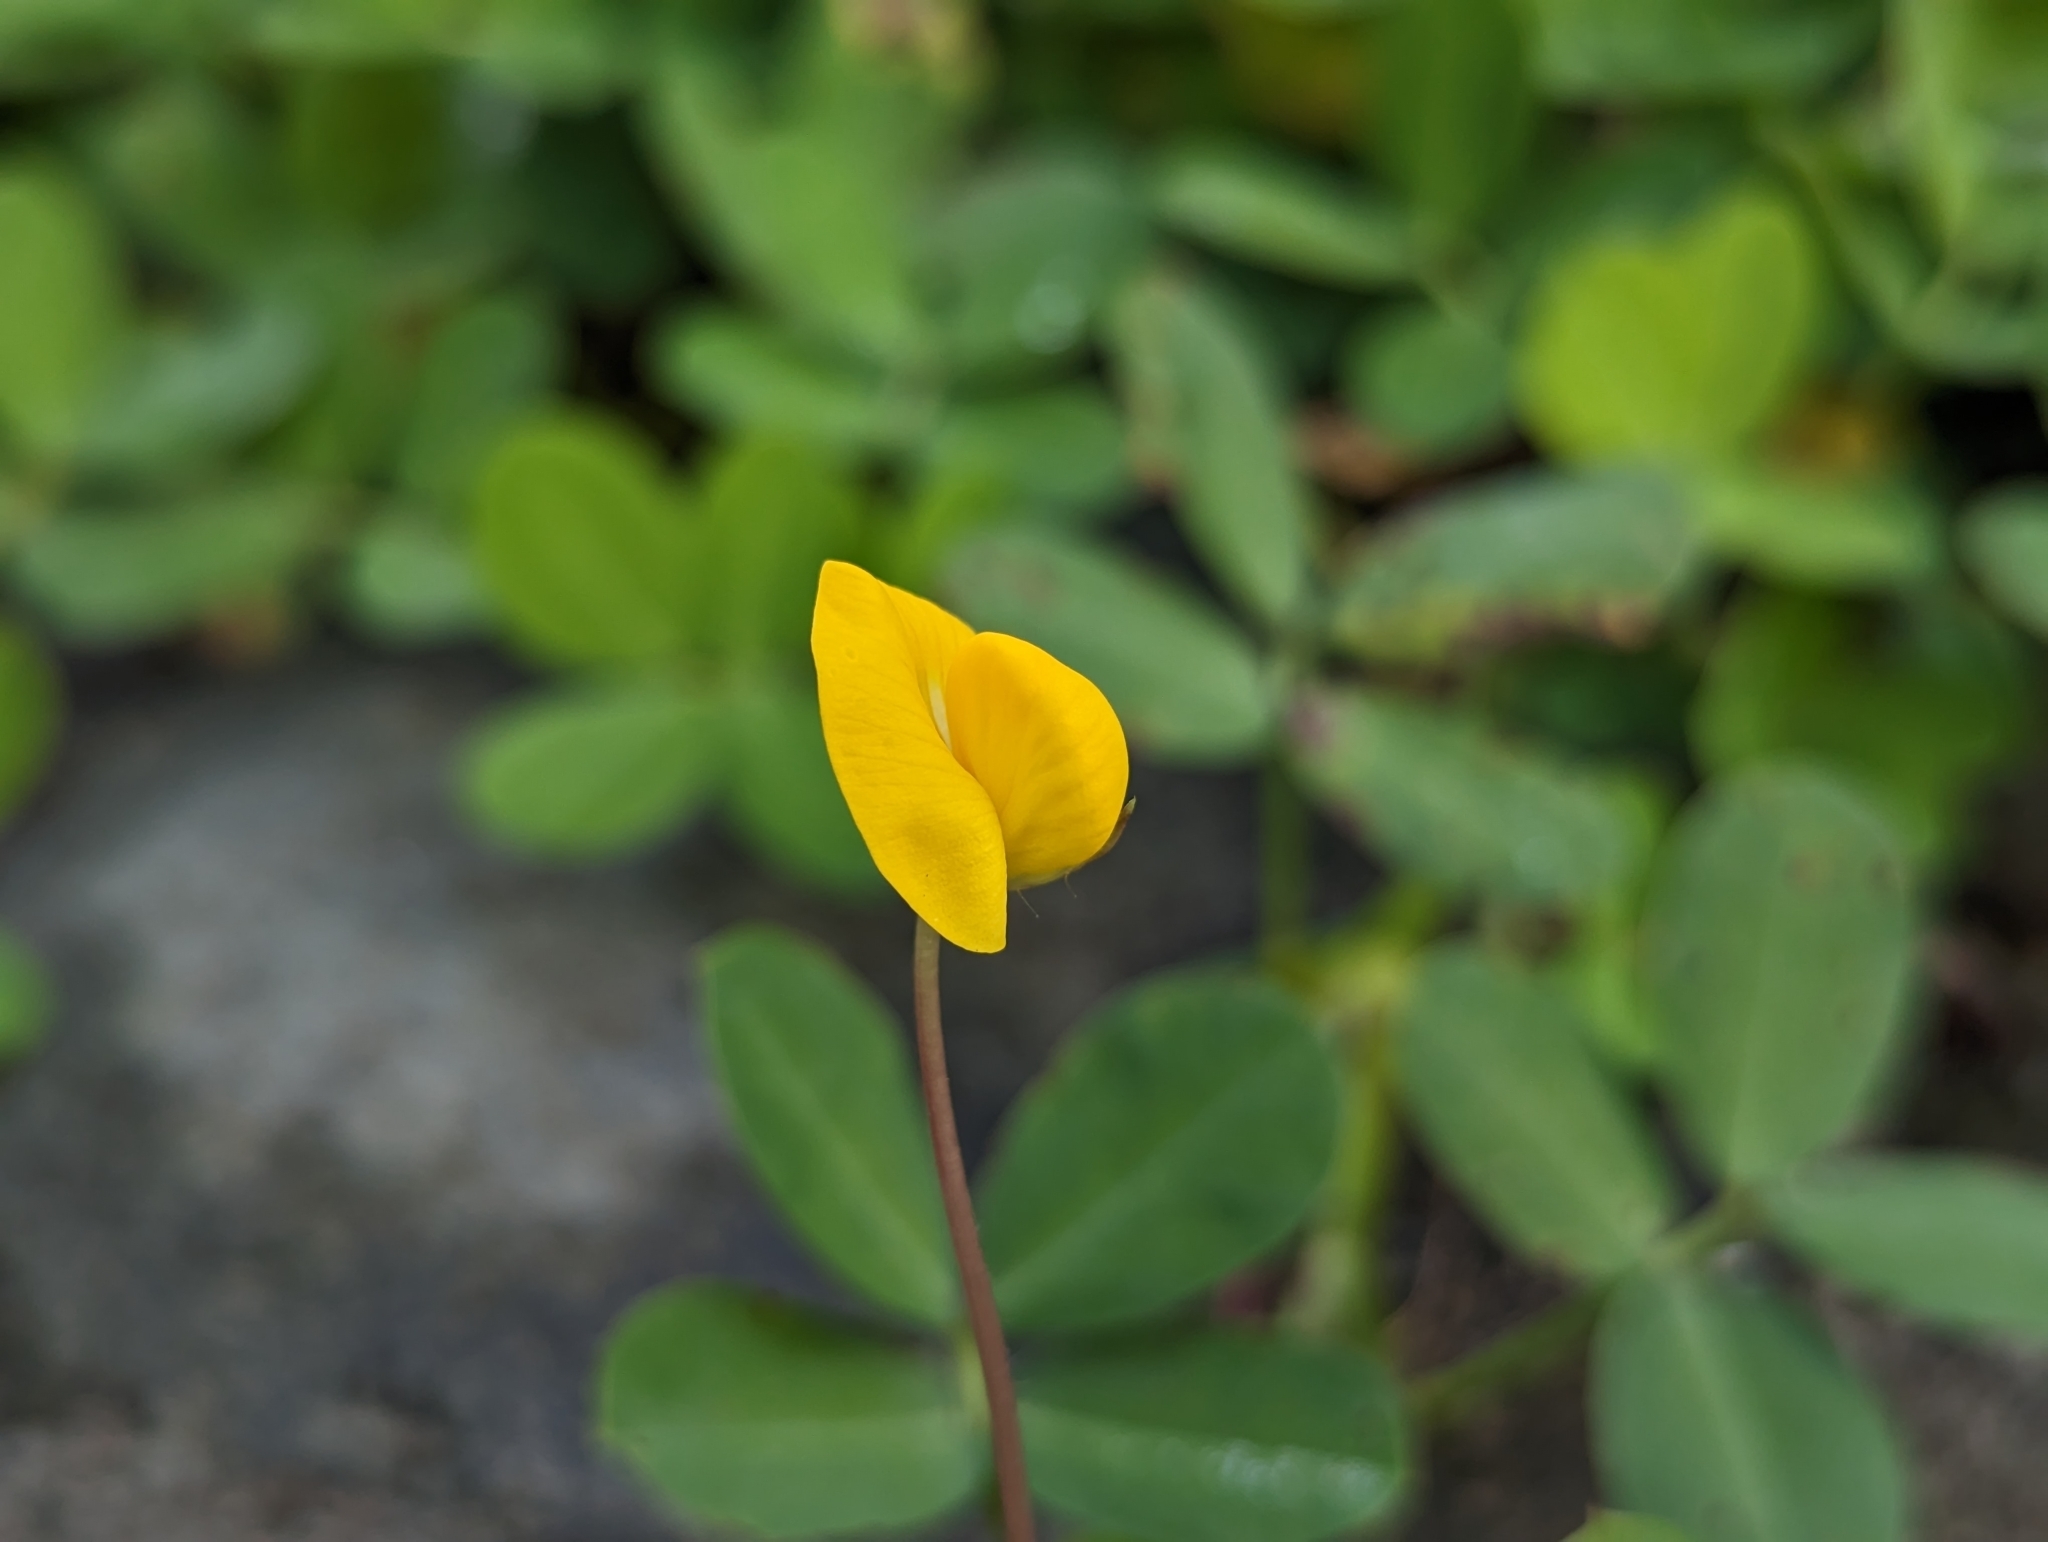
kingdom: Plantae
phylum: Tracheophyta
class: Magnoliopsida
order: Fabales
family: Fabaceae
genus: Arachis
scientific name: Arachis pintoi
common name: Pinto peanut
